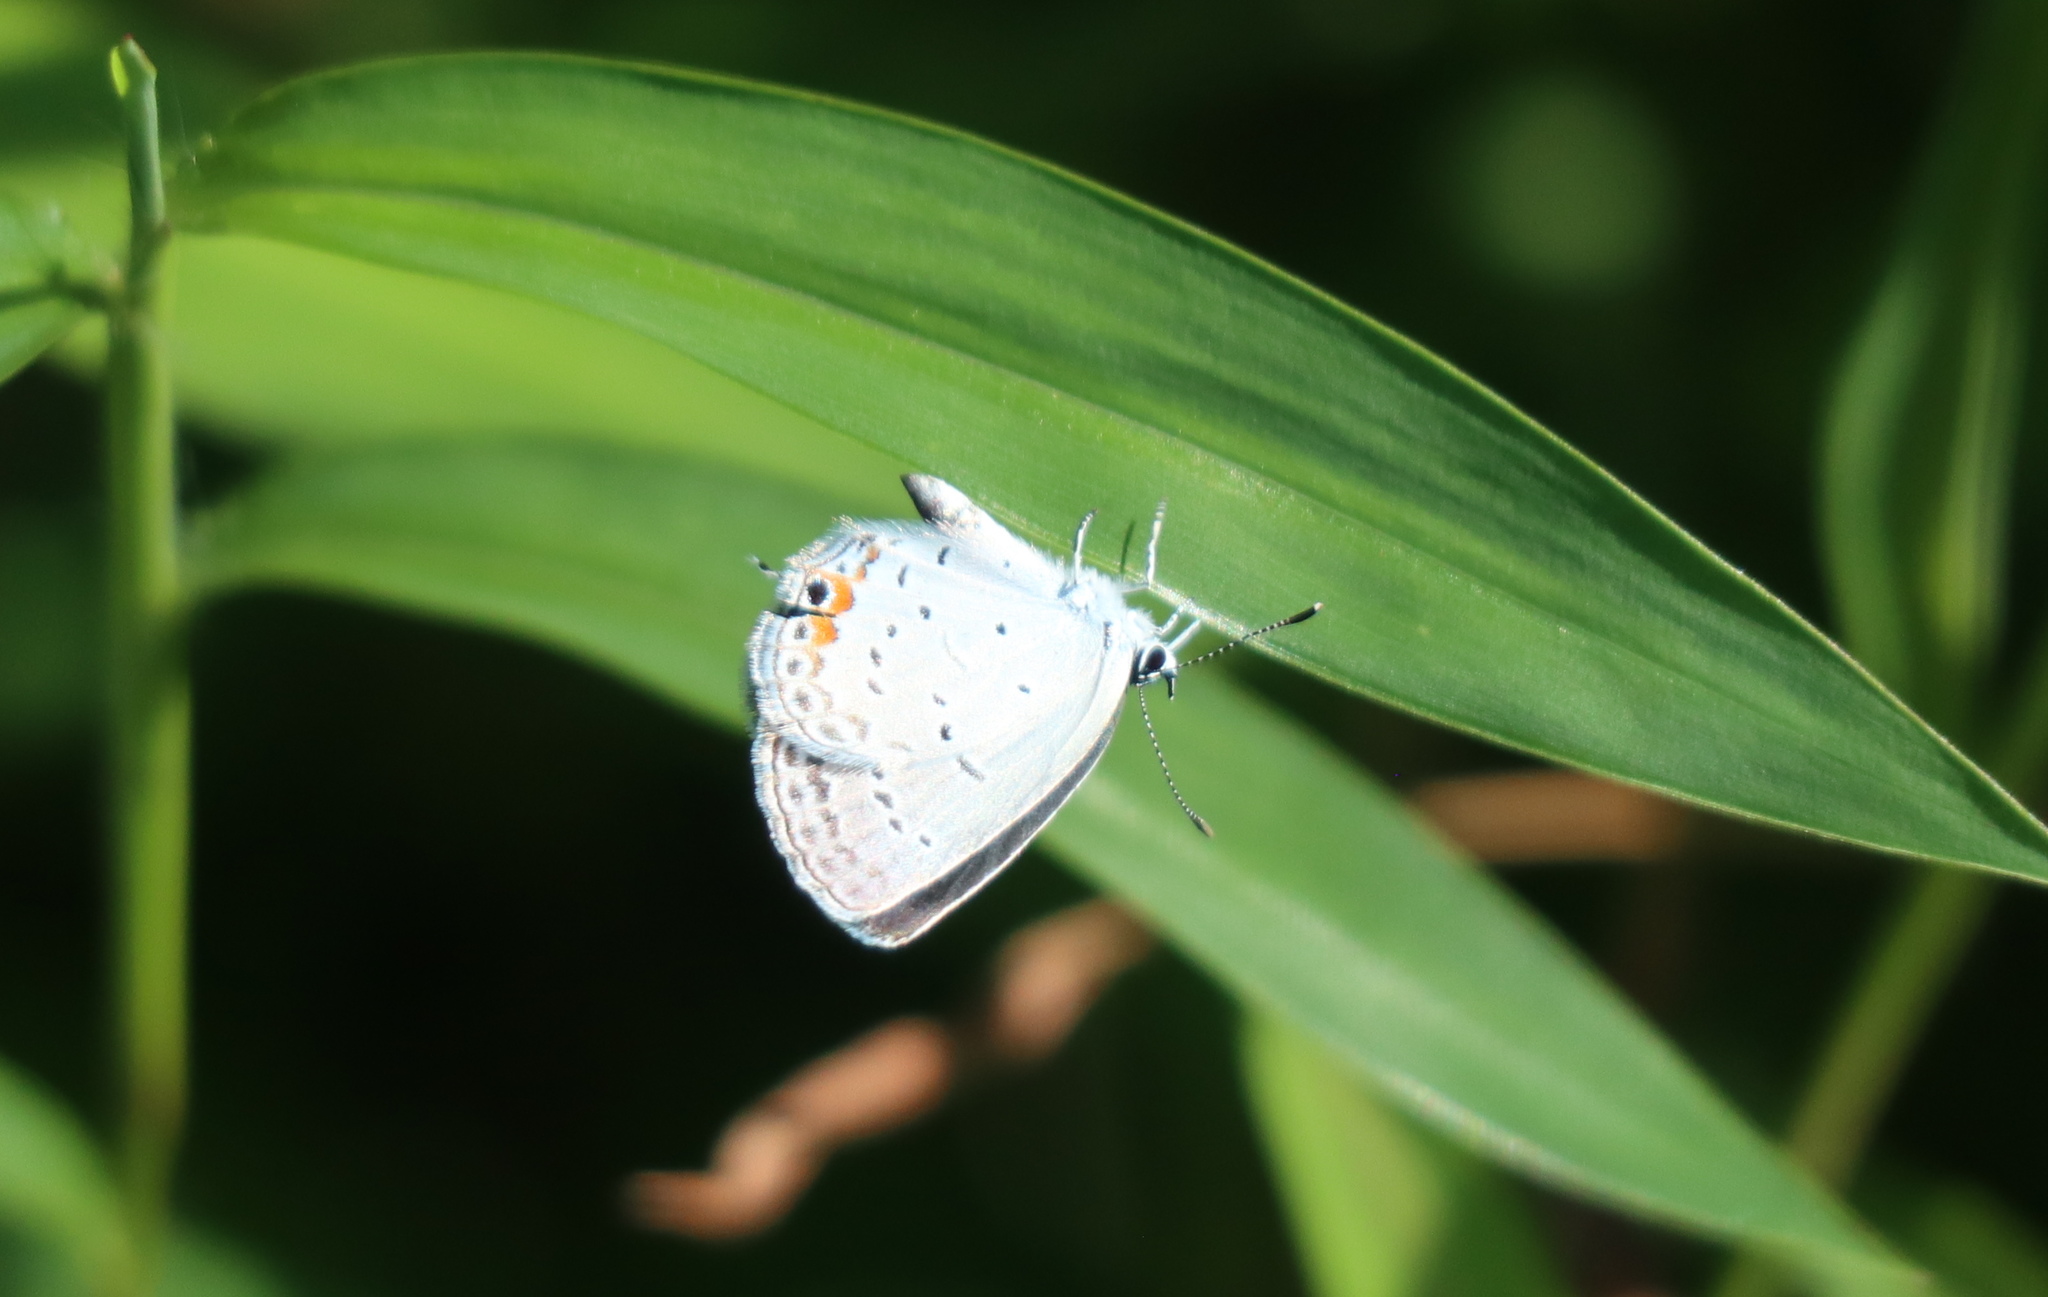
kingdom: Animalia
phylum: Arthropoda
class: Insecta
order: Lepidoptera
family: Lycaenidae
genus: Elkalyce
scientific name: Elkalyce comyntas
